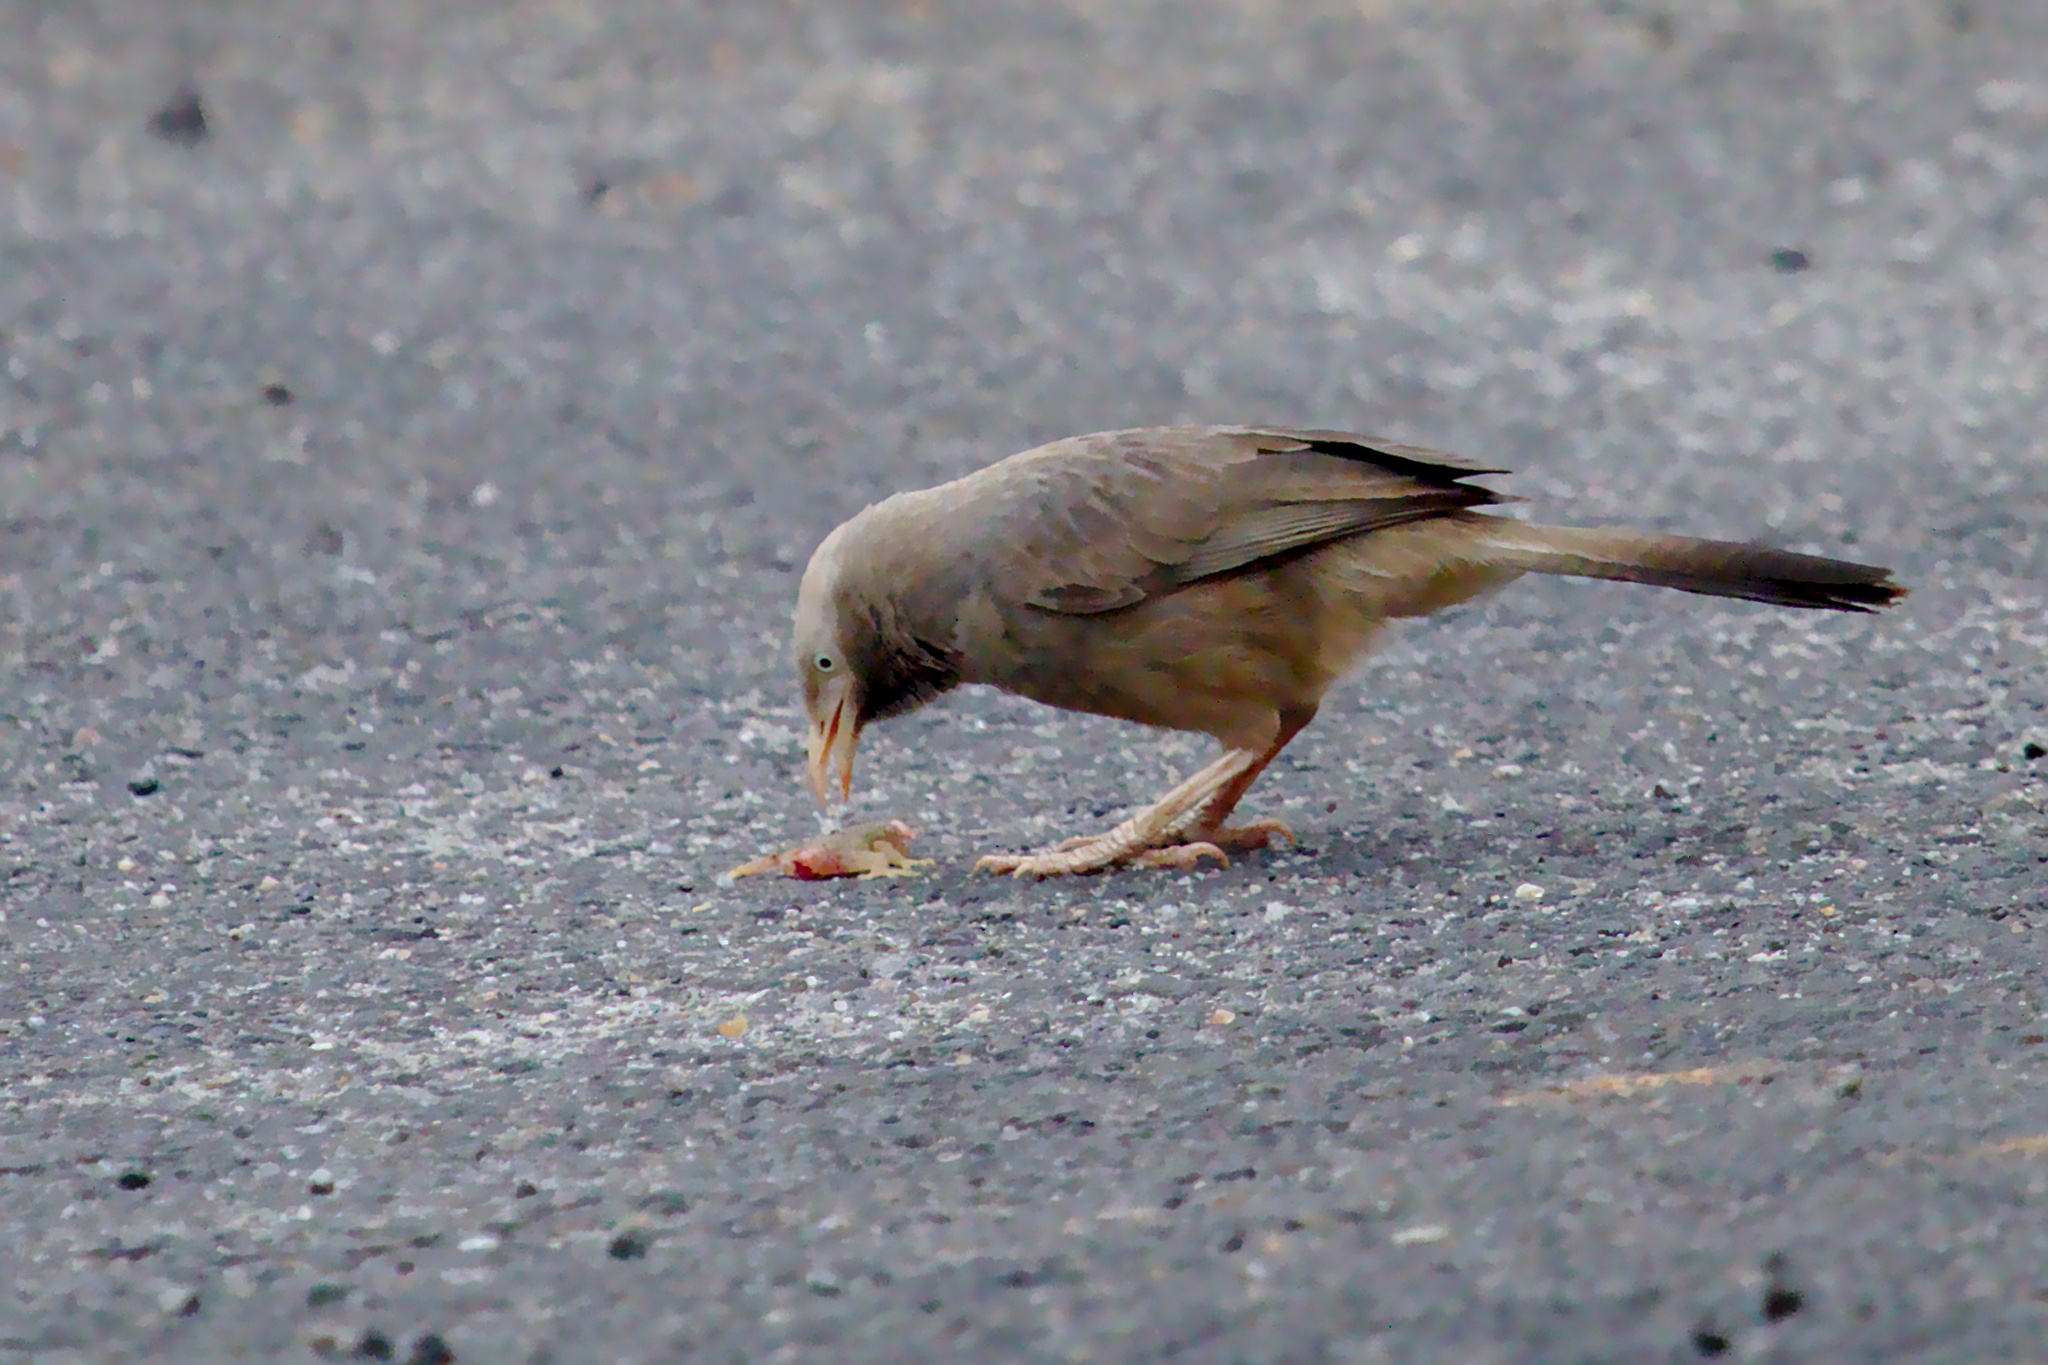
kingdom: Animalia
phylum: Chordata
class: Aves
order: Passeriformes
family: Leiothrichidae
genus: Turdoides
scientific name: Turdoides affinis
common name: Yellow-billed babbler
